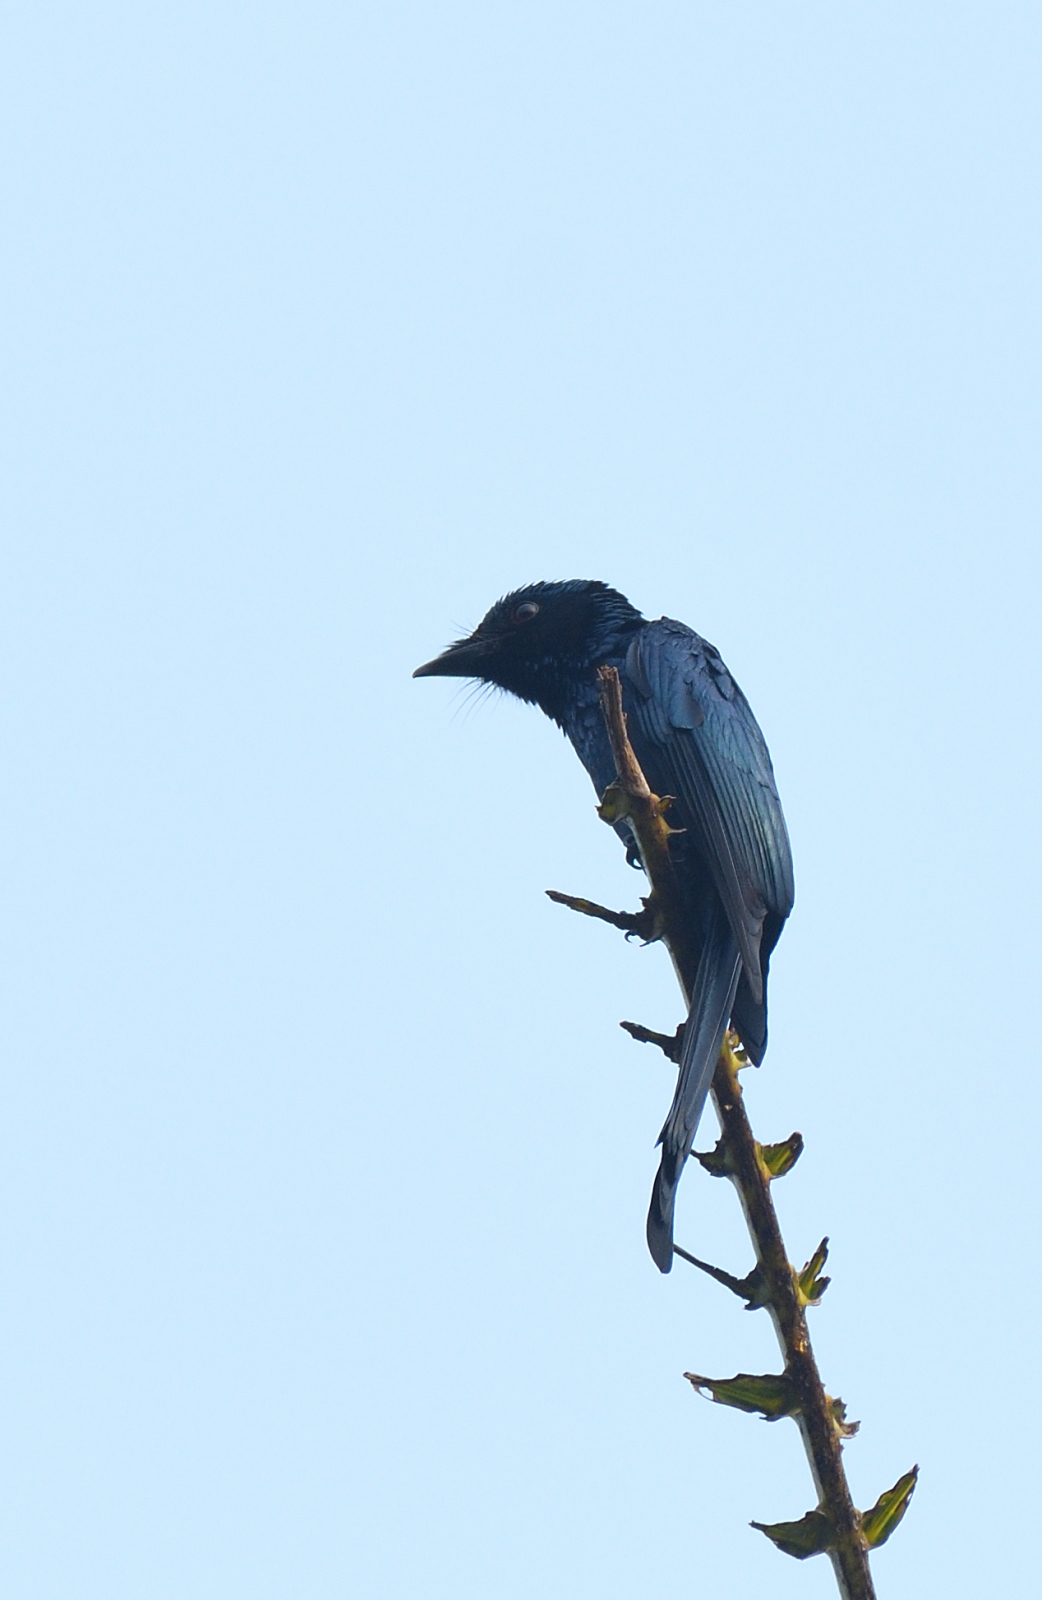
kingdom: Animalia
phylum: Chordata
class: Aves
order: Passeriformes
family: Dicruridae
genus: Dicrurus
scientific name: Dicrurus aeneus
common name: Bronzed drongo
